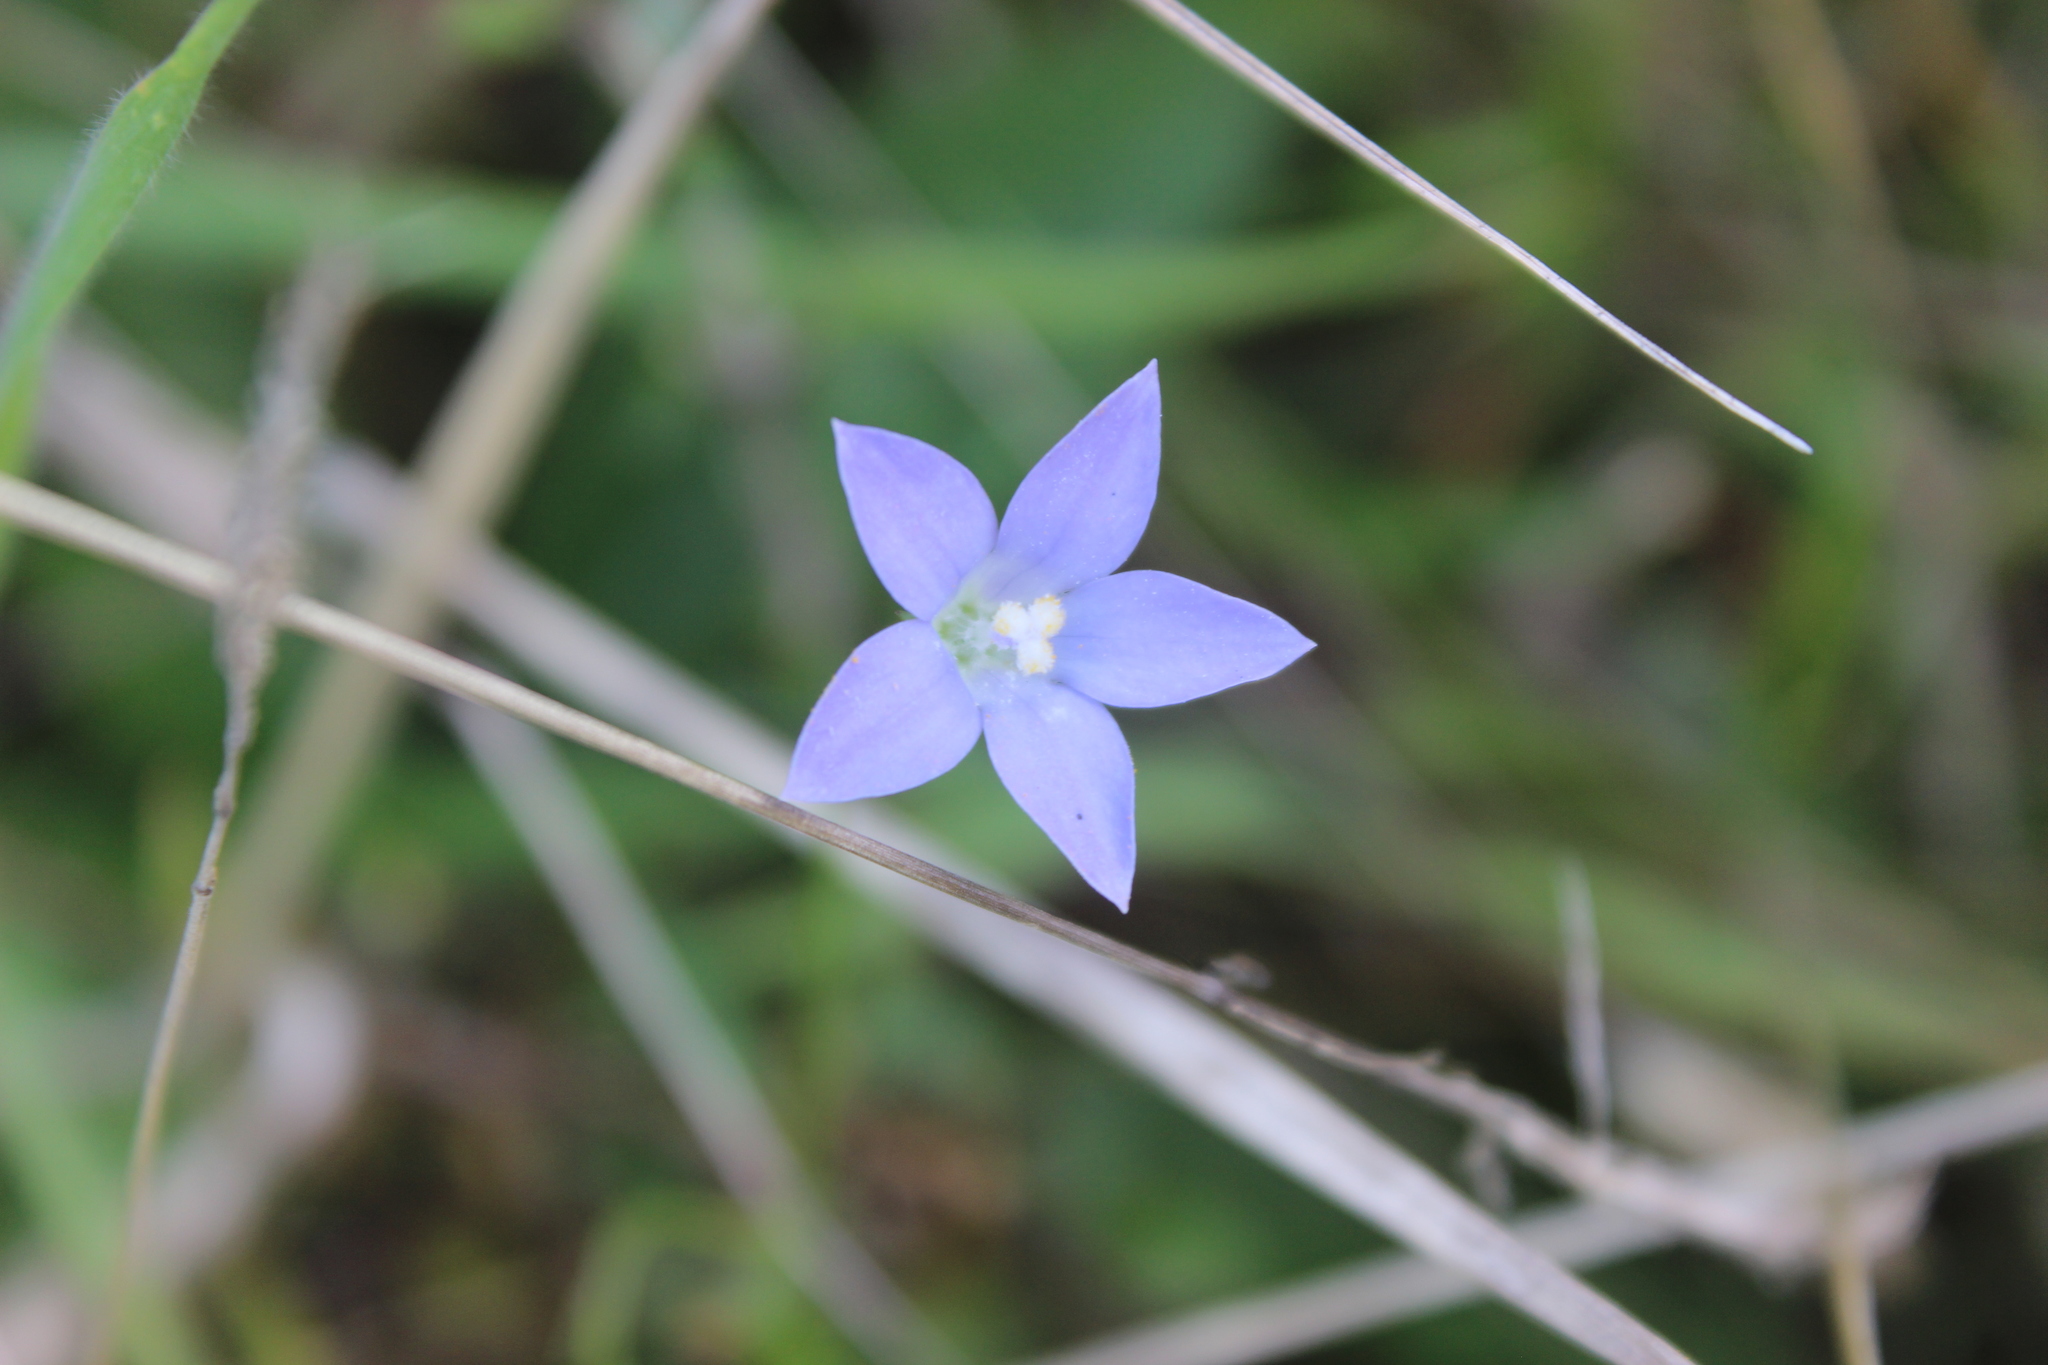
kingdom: Plantae
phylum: Tracheophyta
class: Magnoliopsida
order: Asterales
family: Campanulaceae
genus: Wahlenbergia
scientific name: Wahlenbergia violacea
